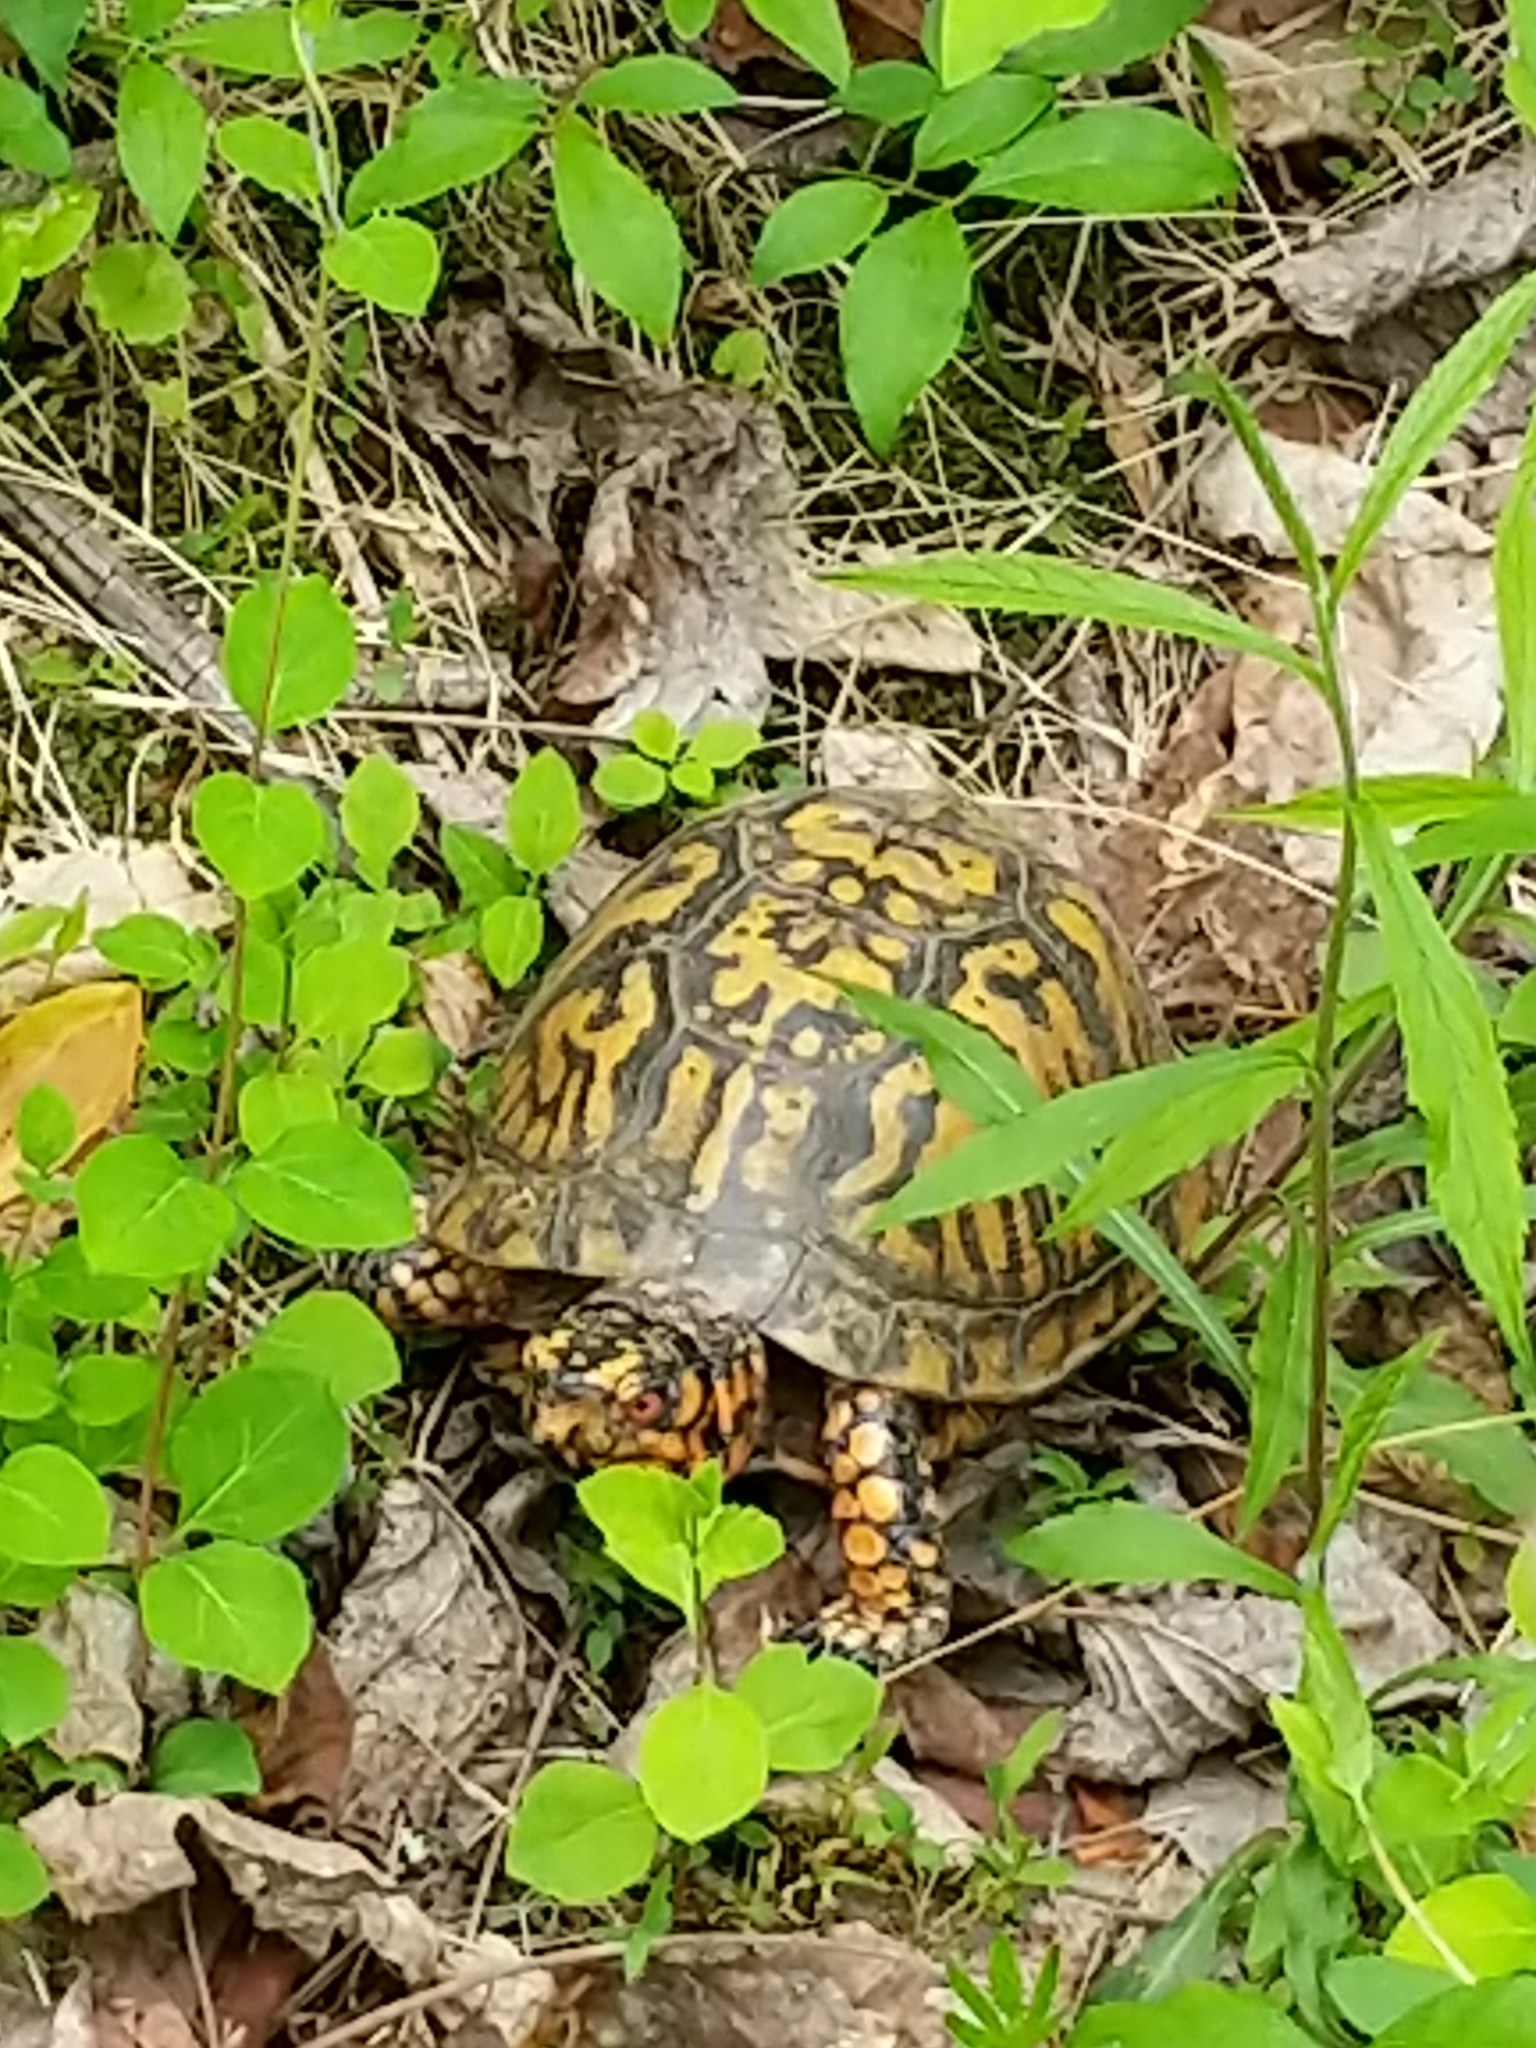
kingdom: Animalia
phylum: Chordata
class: Testudines
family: Emydidae
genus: Terrapene
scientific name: Terrapene carolina
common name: Common box turtle
